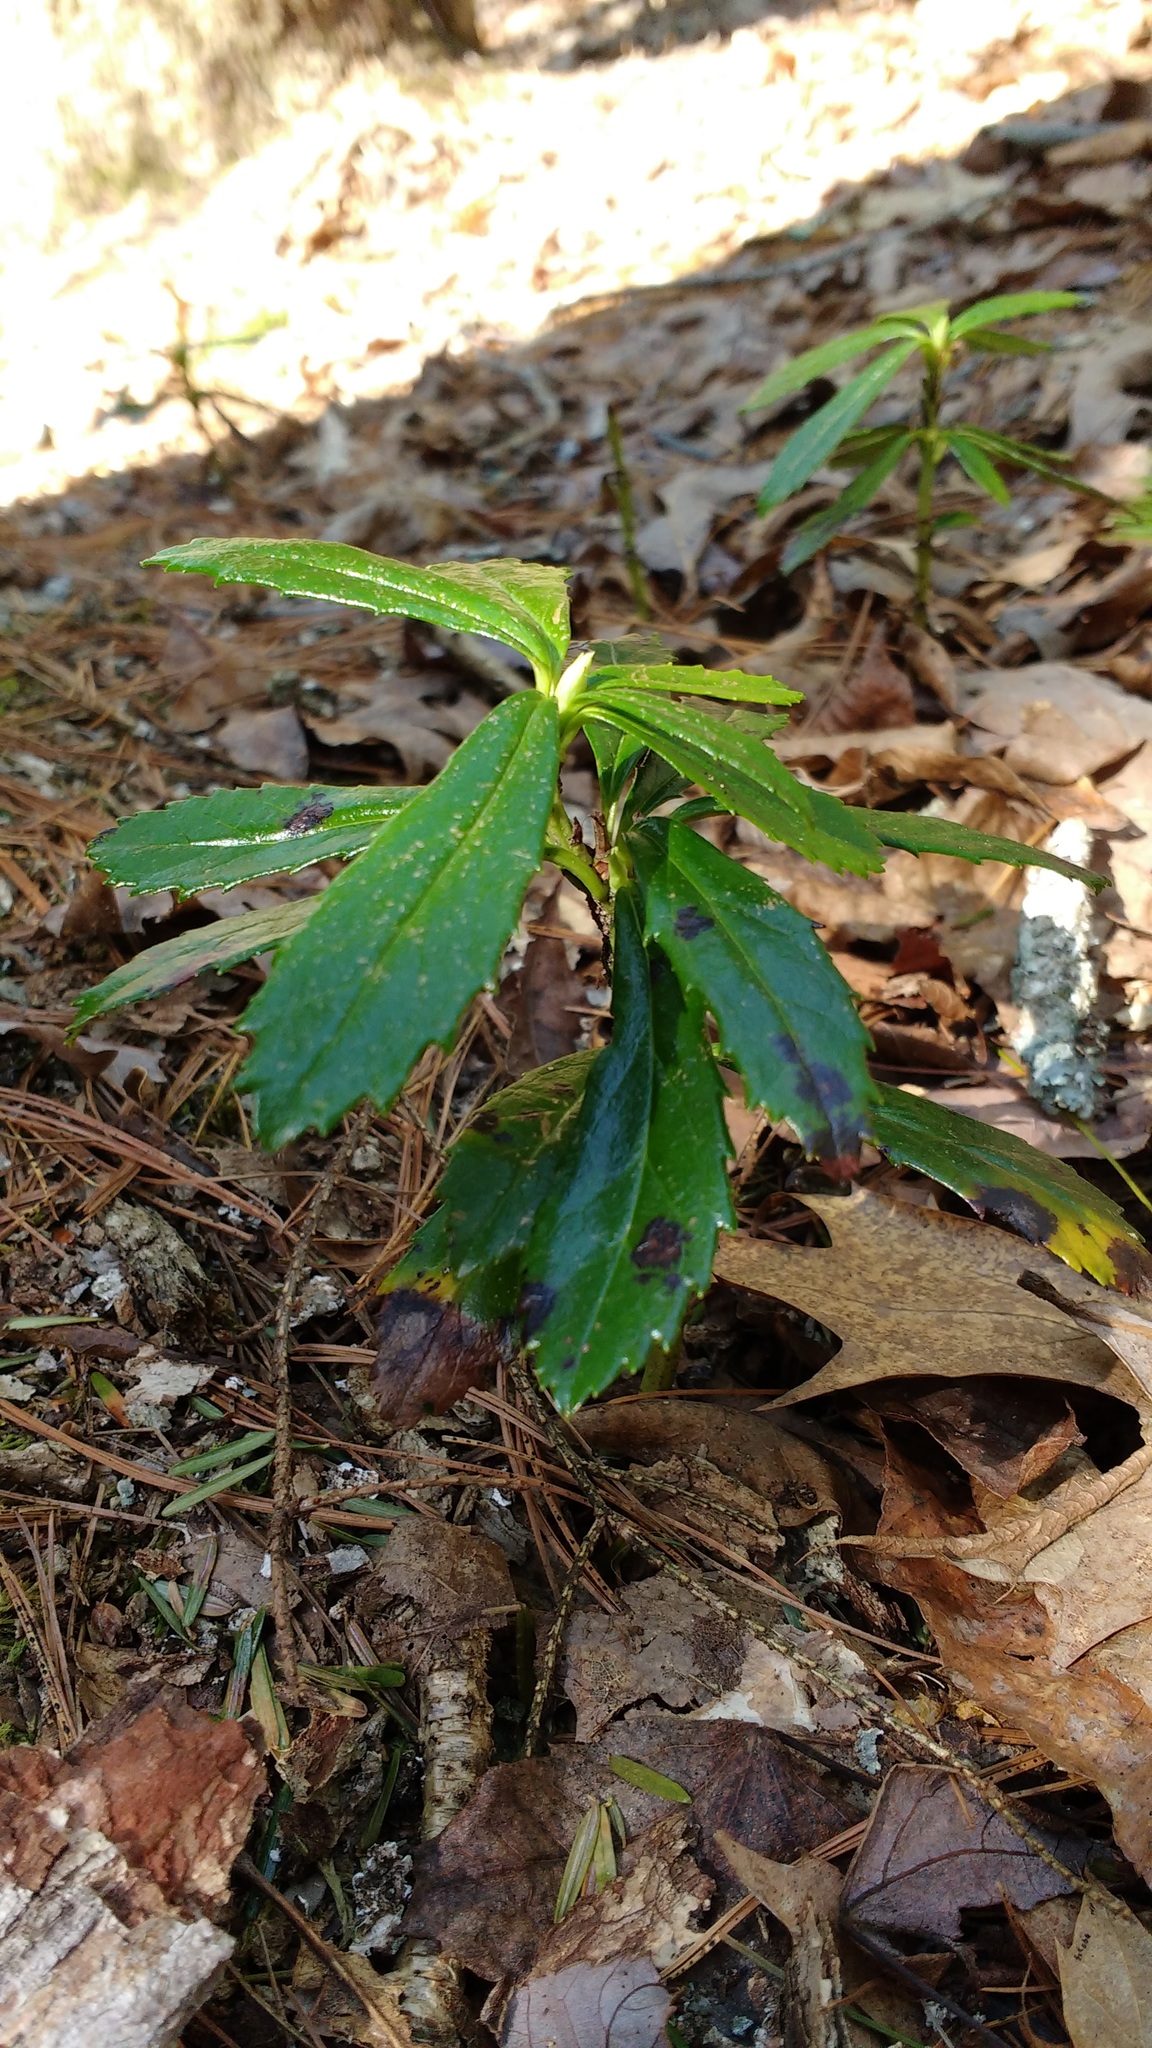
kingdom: Plantae
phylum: Tracheophyta
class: Magnoliopsida
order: Ericales
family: Ericaceae
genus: Chimaphila
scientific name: Chimaphila umbellata
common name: Pipsissewa
